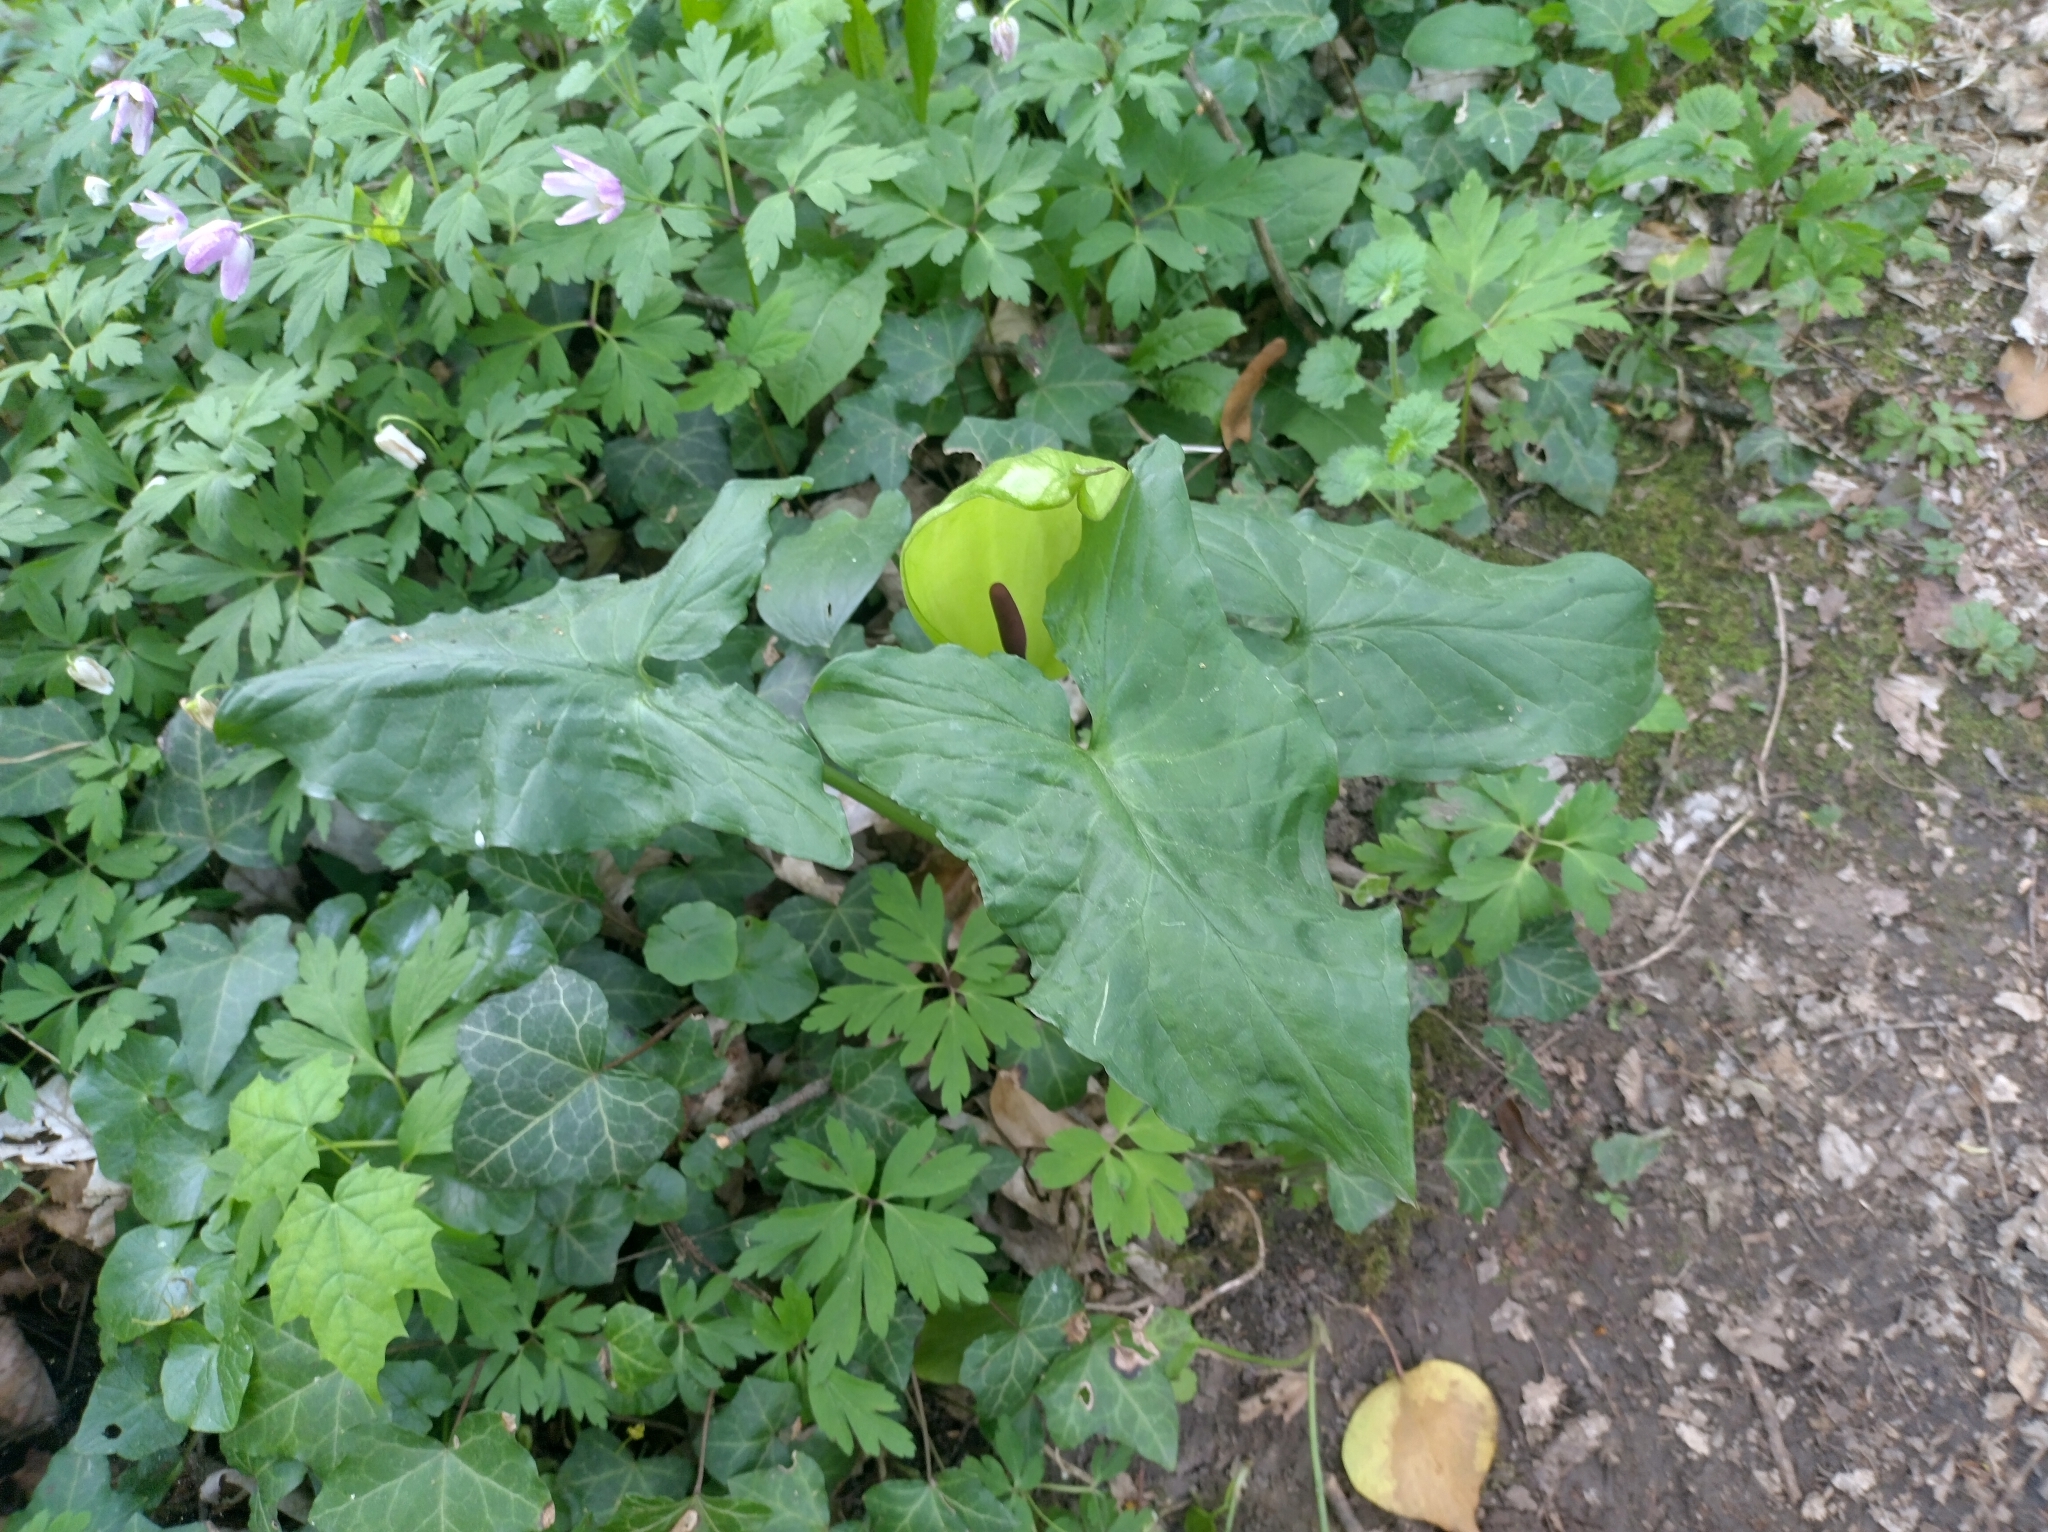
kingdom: Plantae
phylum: Tracheophyta
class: Liliopsida
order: Alismatales
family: Araceae
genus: Arum
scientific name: Arum maculatum
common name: Lords-and-ladies
